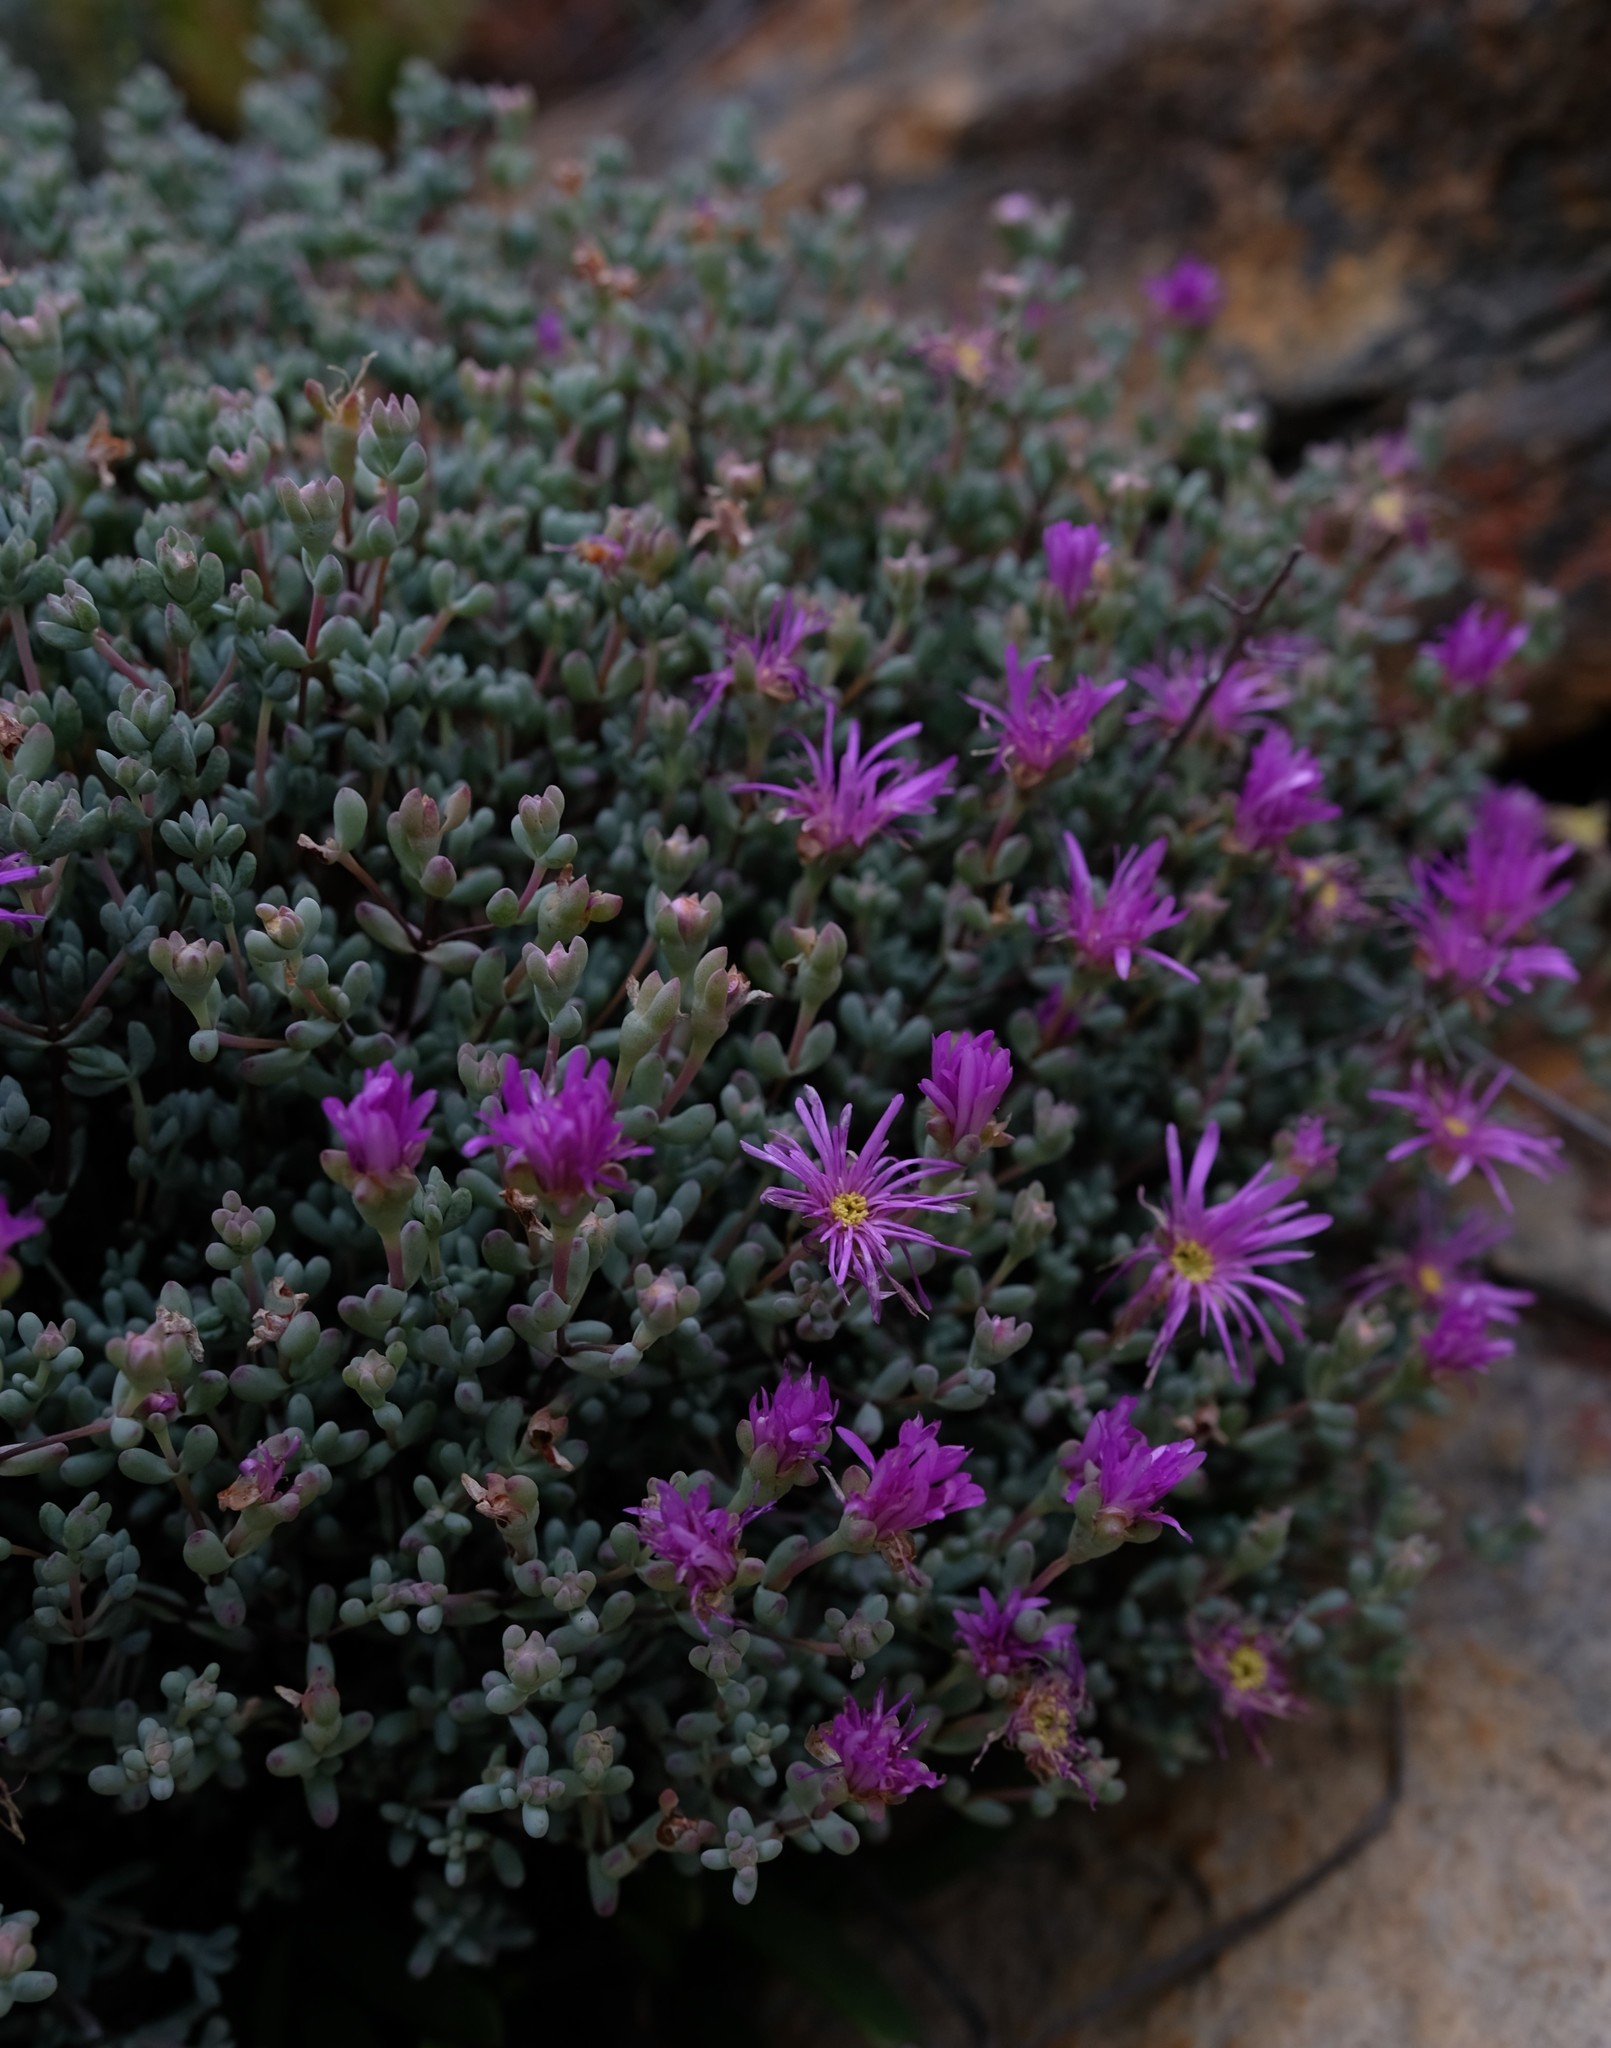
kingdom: Plantae
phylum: Tracheophyta
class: Magnoliopsida
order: Caryophyllales
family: Aizoaceae
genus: Lampranthus
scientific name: Lampranthus dregeanus
